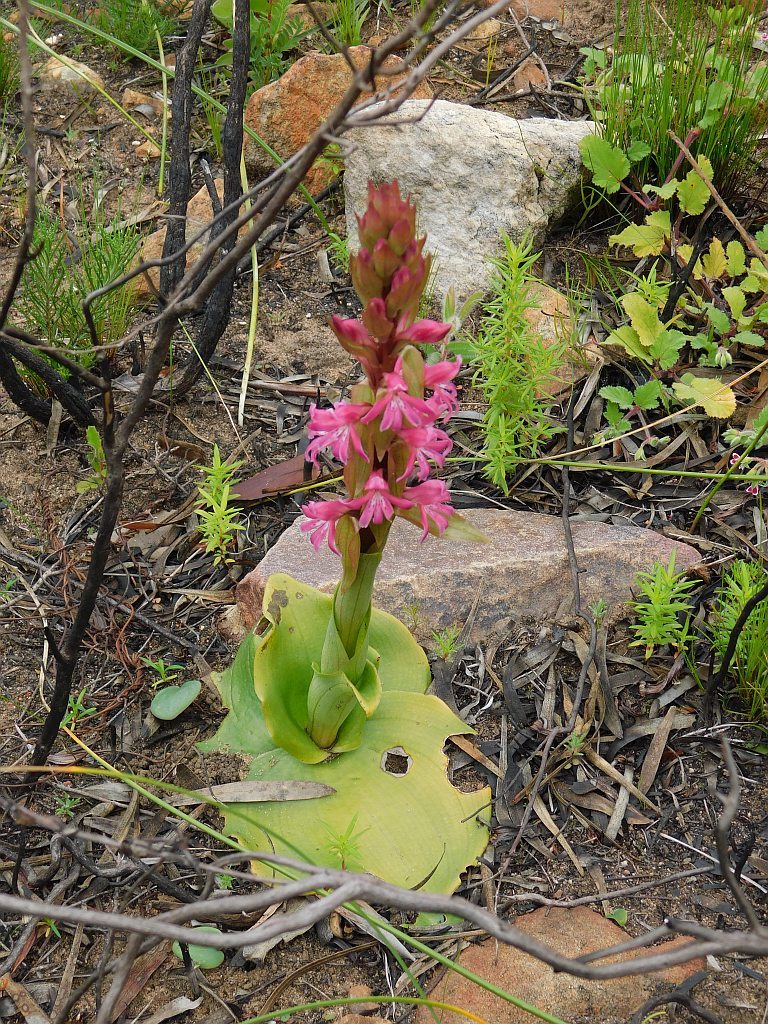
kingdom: Plantae
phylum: Tracheophyta
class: Liliopsida
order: Asparagales
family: Orchidaceae
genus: Satyrium
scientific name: Satyrium erectum
